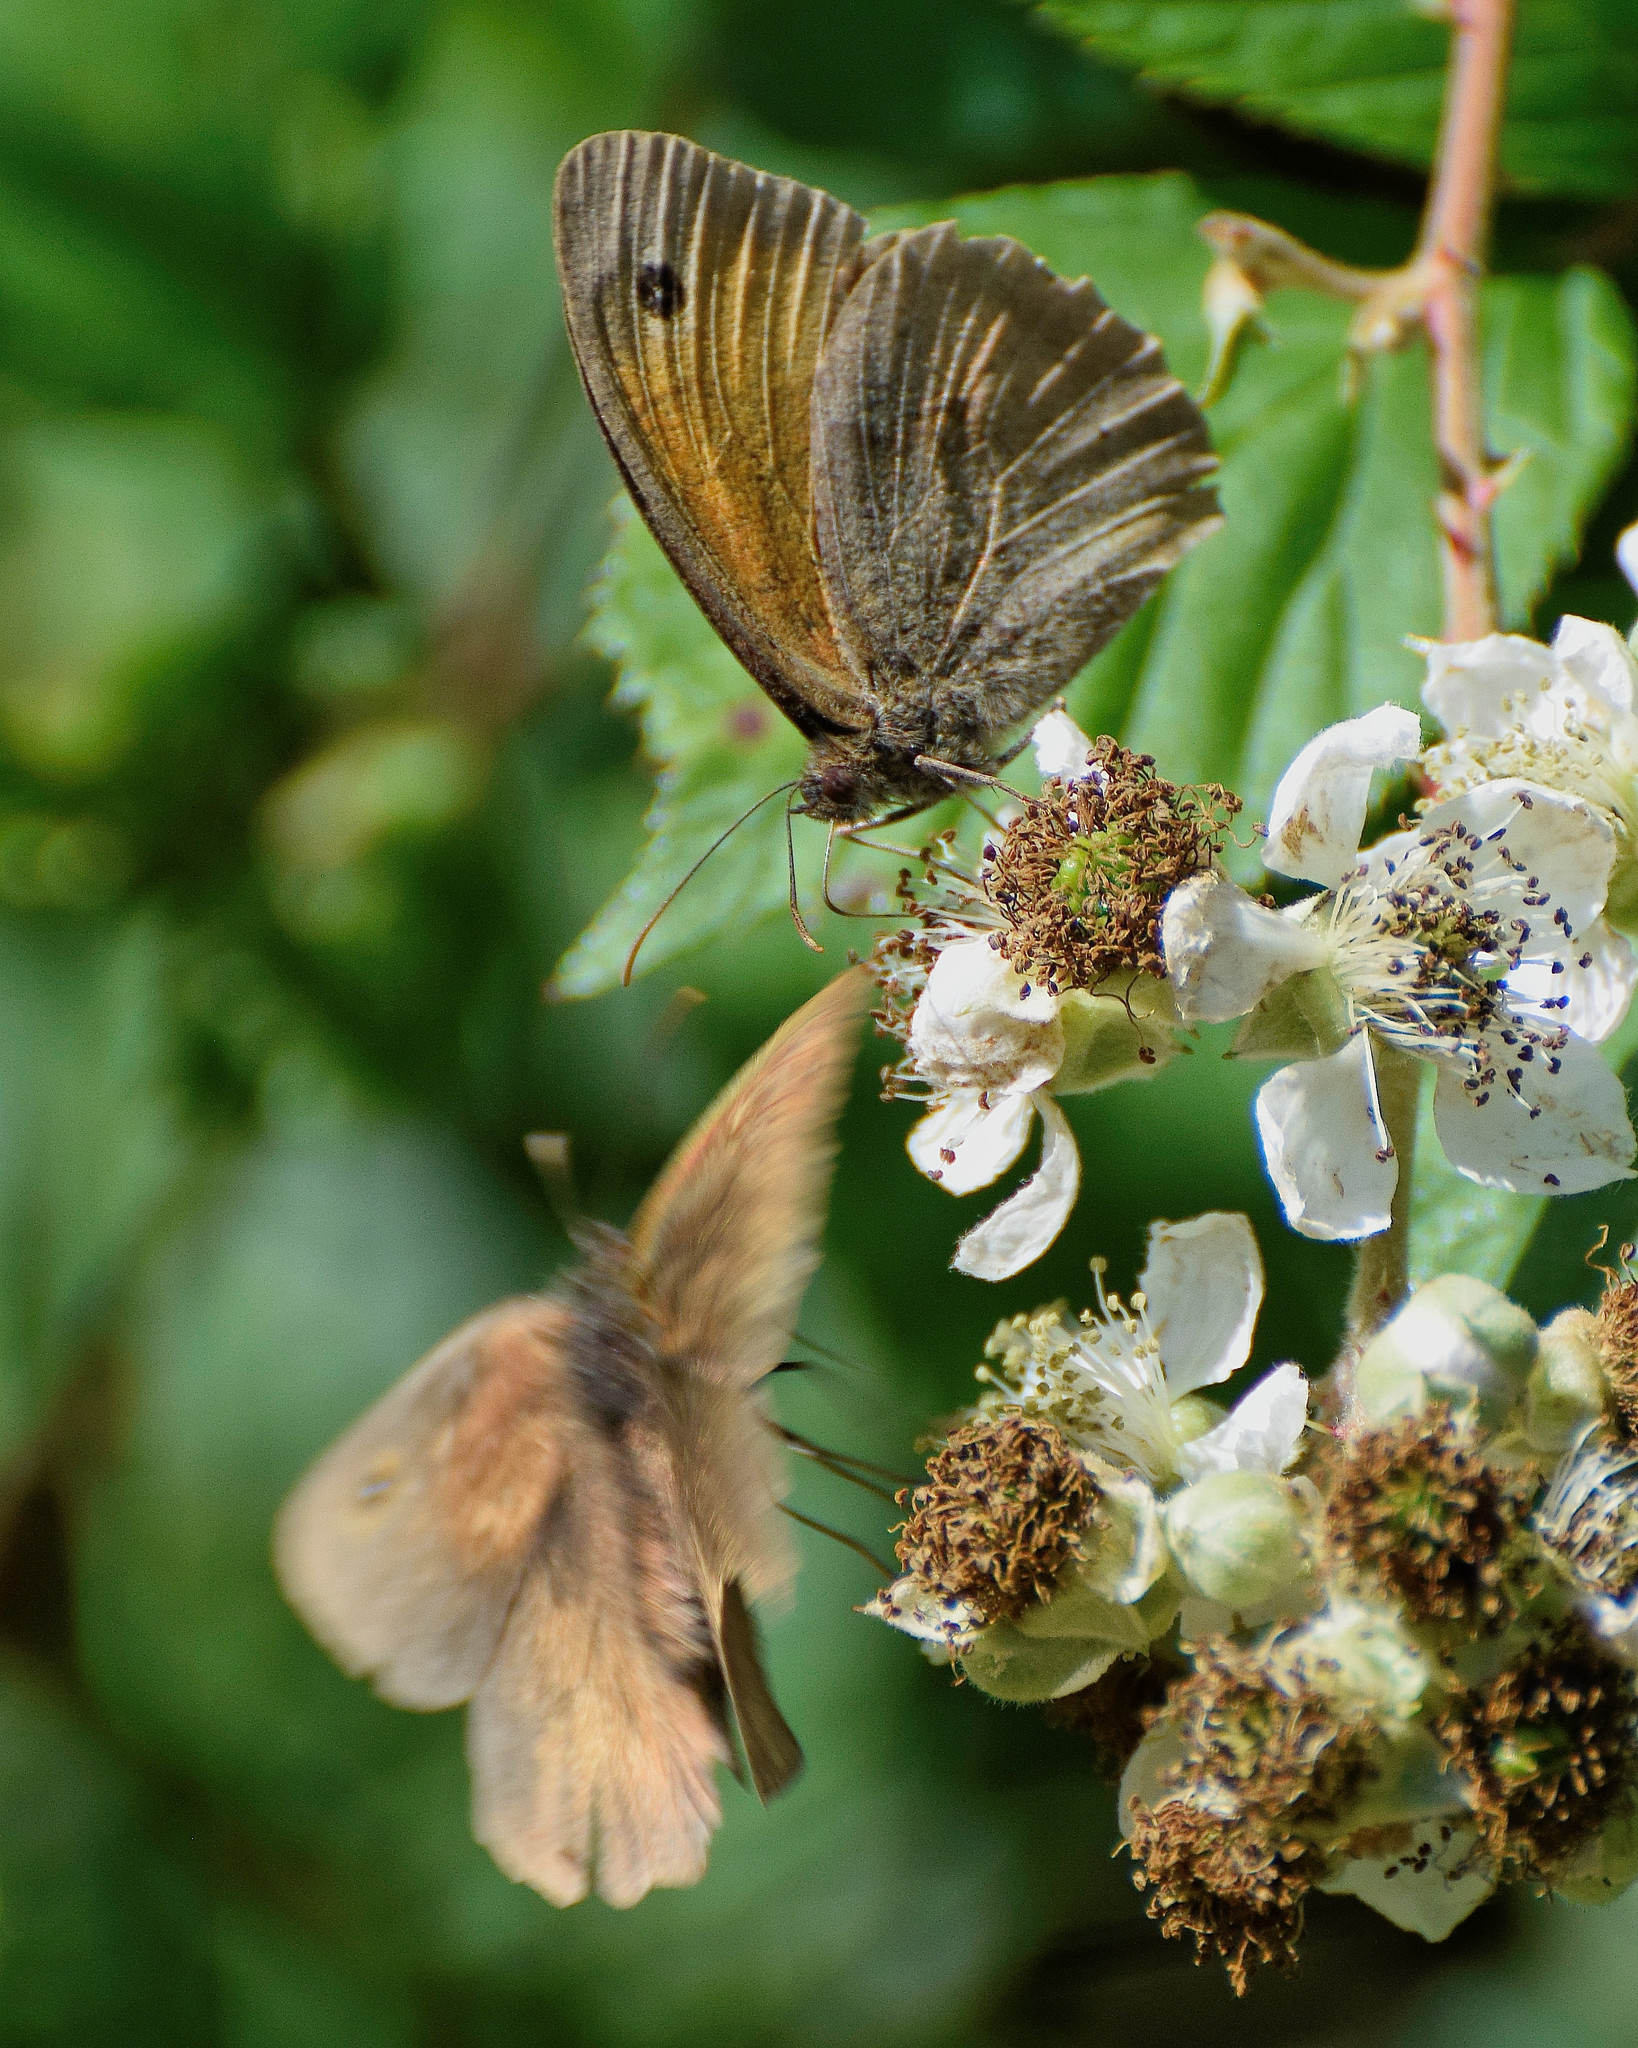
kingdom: Animalia
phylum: Arthropoda
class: Insecta
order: Lepidoptera
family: Nymphalidae
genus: Maniola
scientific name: Maniola jurtina
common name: Meadow brown
